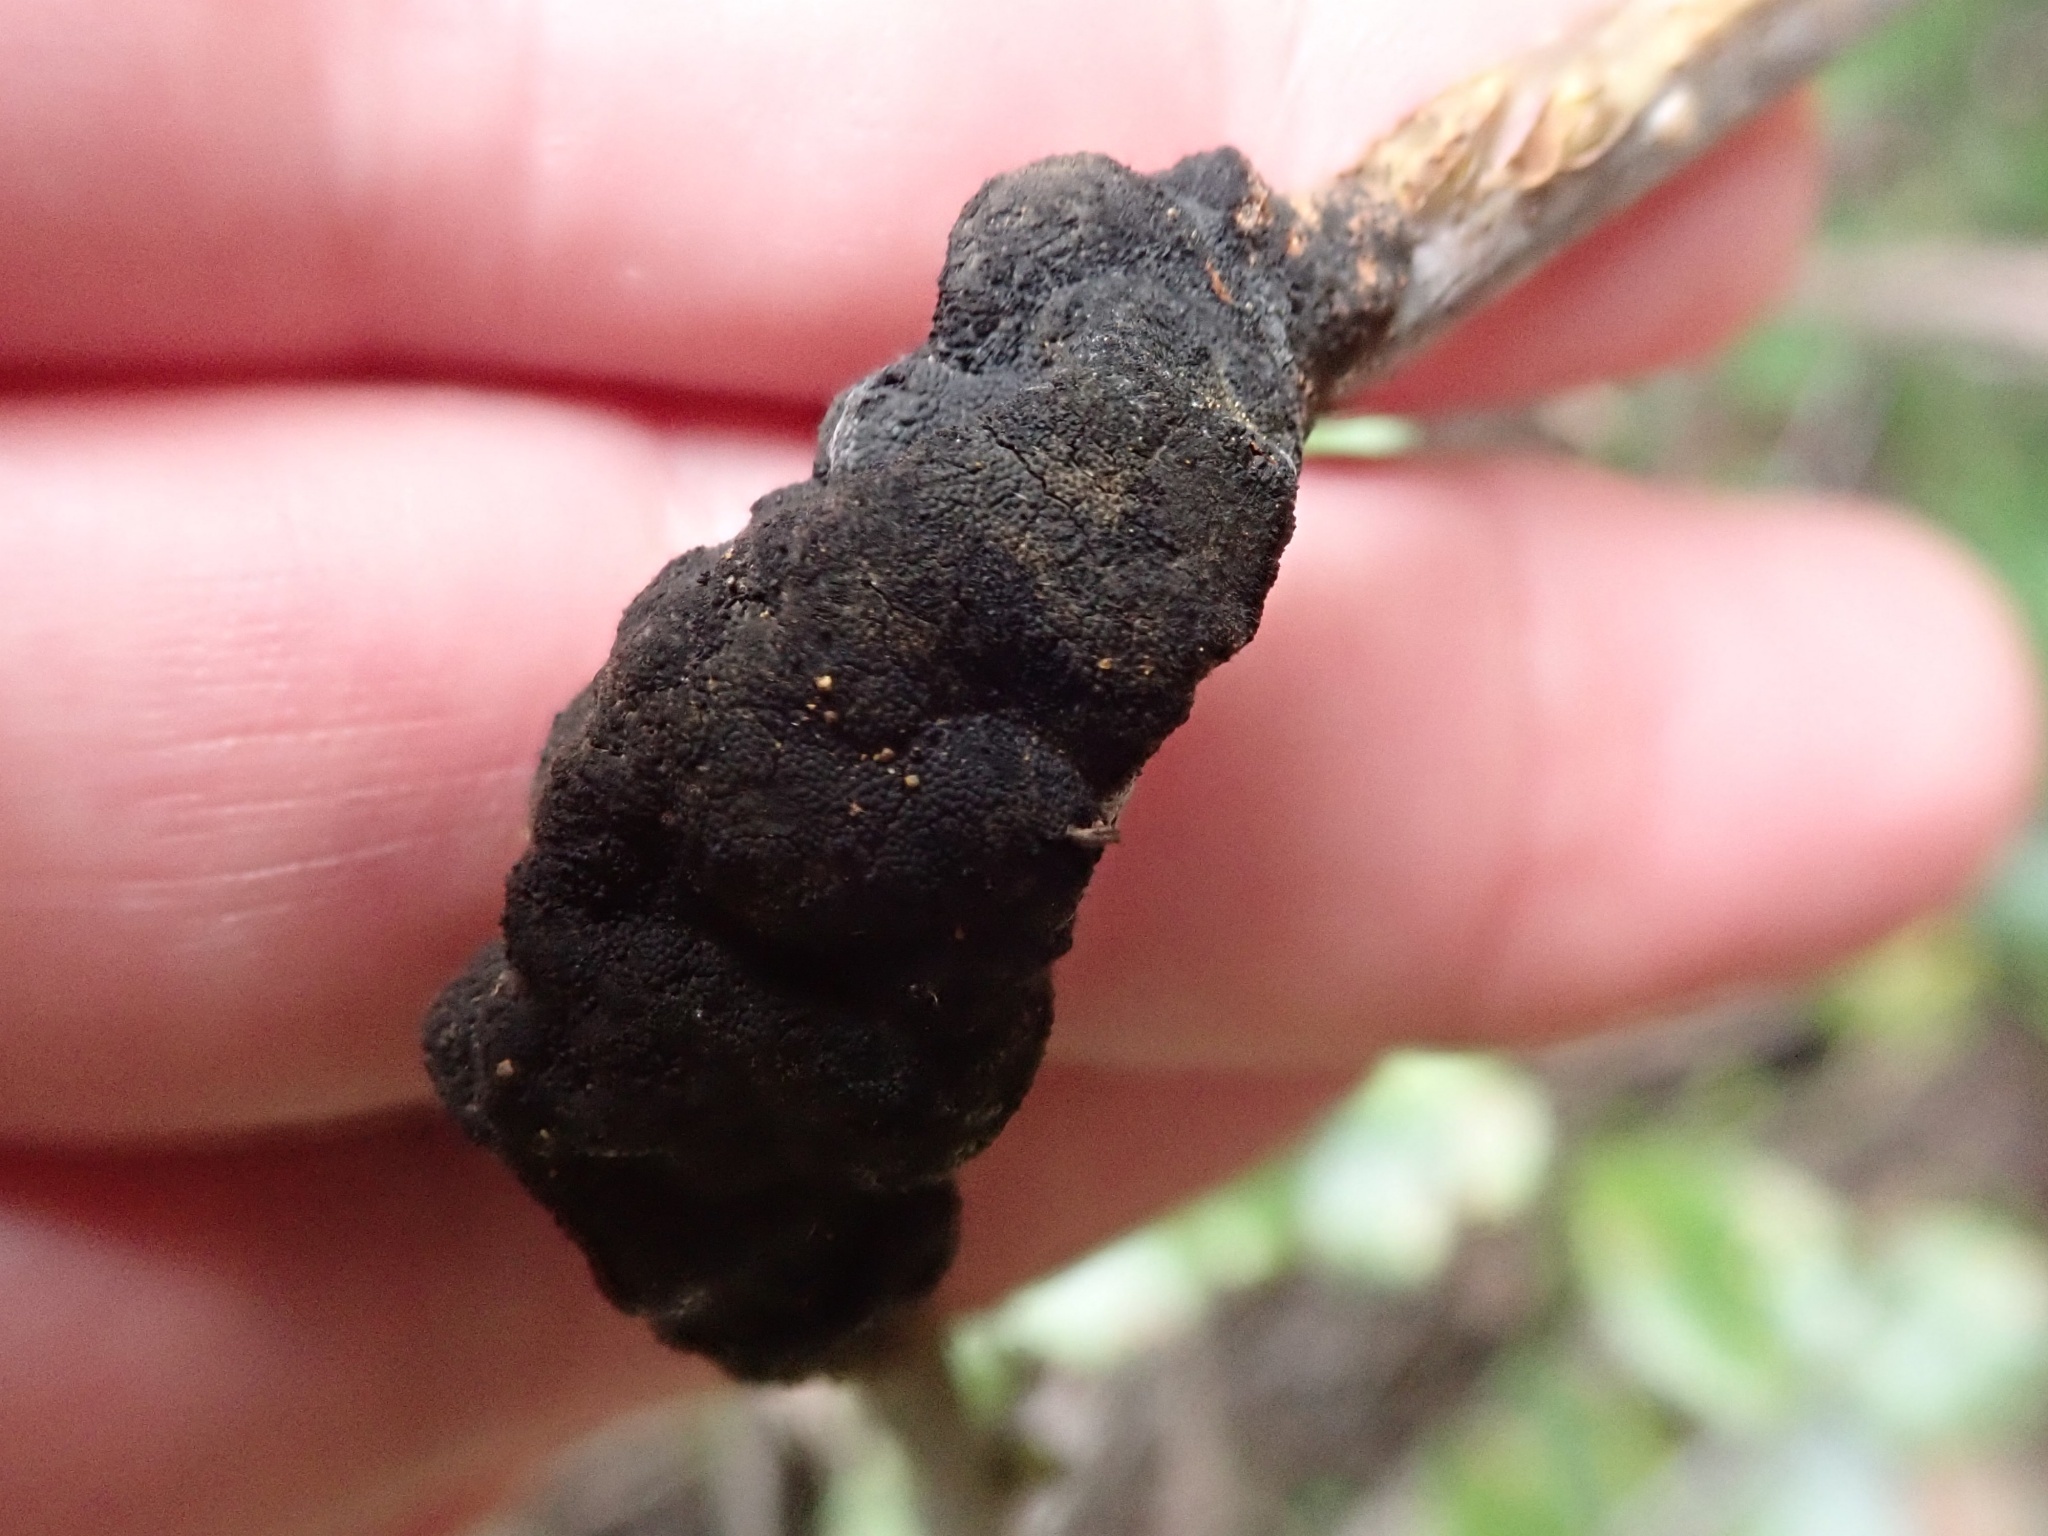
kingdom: Fungi
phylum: Ascomycota
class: Dothideomycetes
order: Venturiales
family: Venturiaceae
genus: Apiosporina
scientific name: Apiosporina morbosa
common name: Black knot
